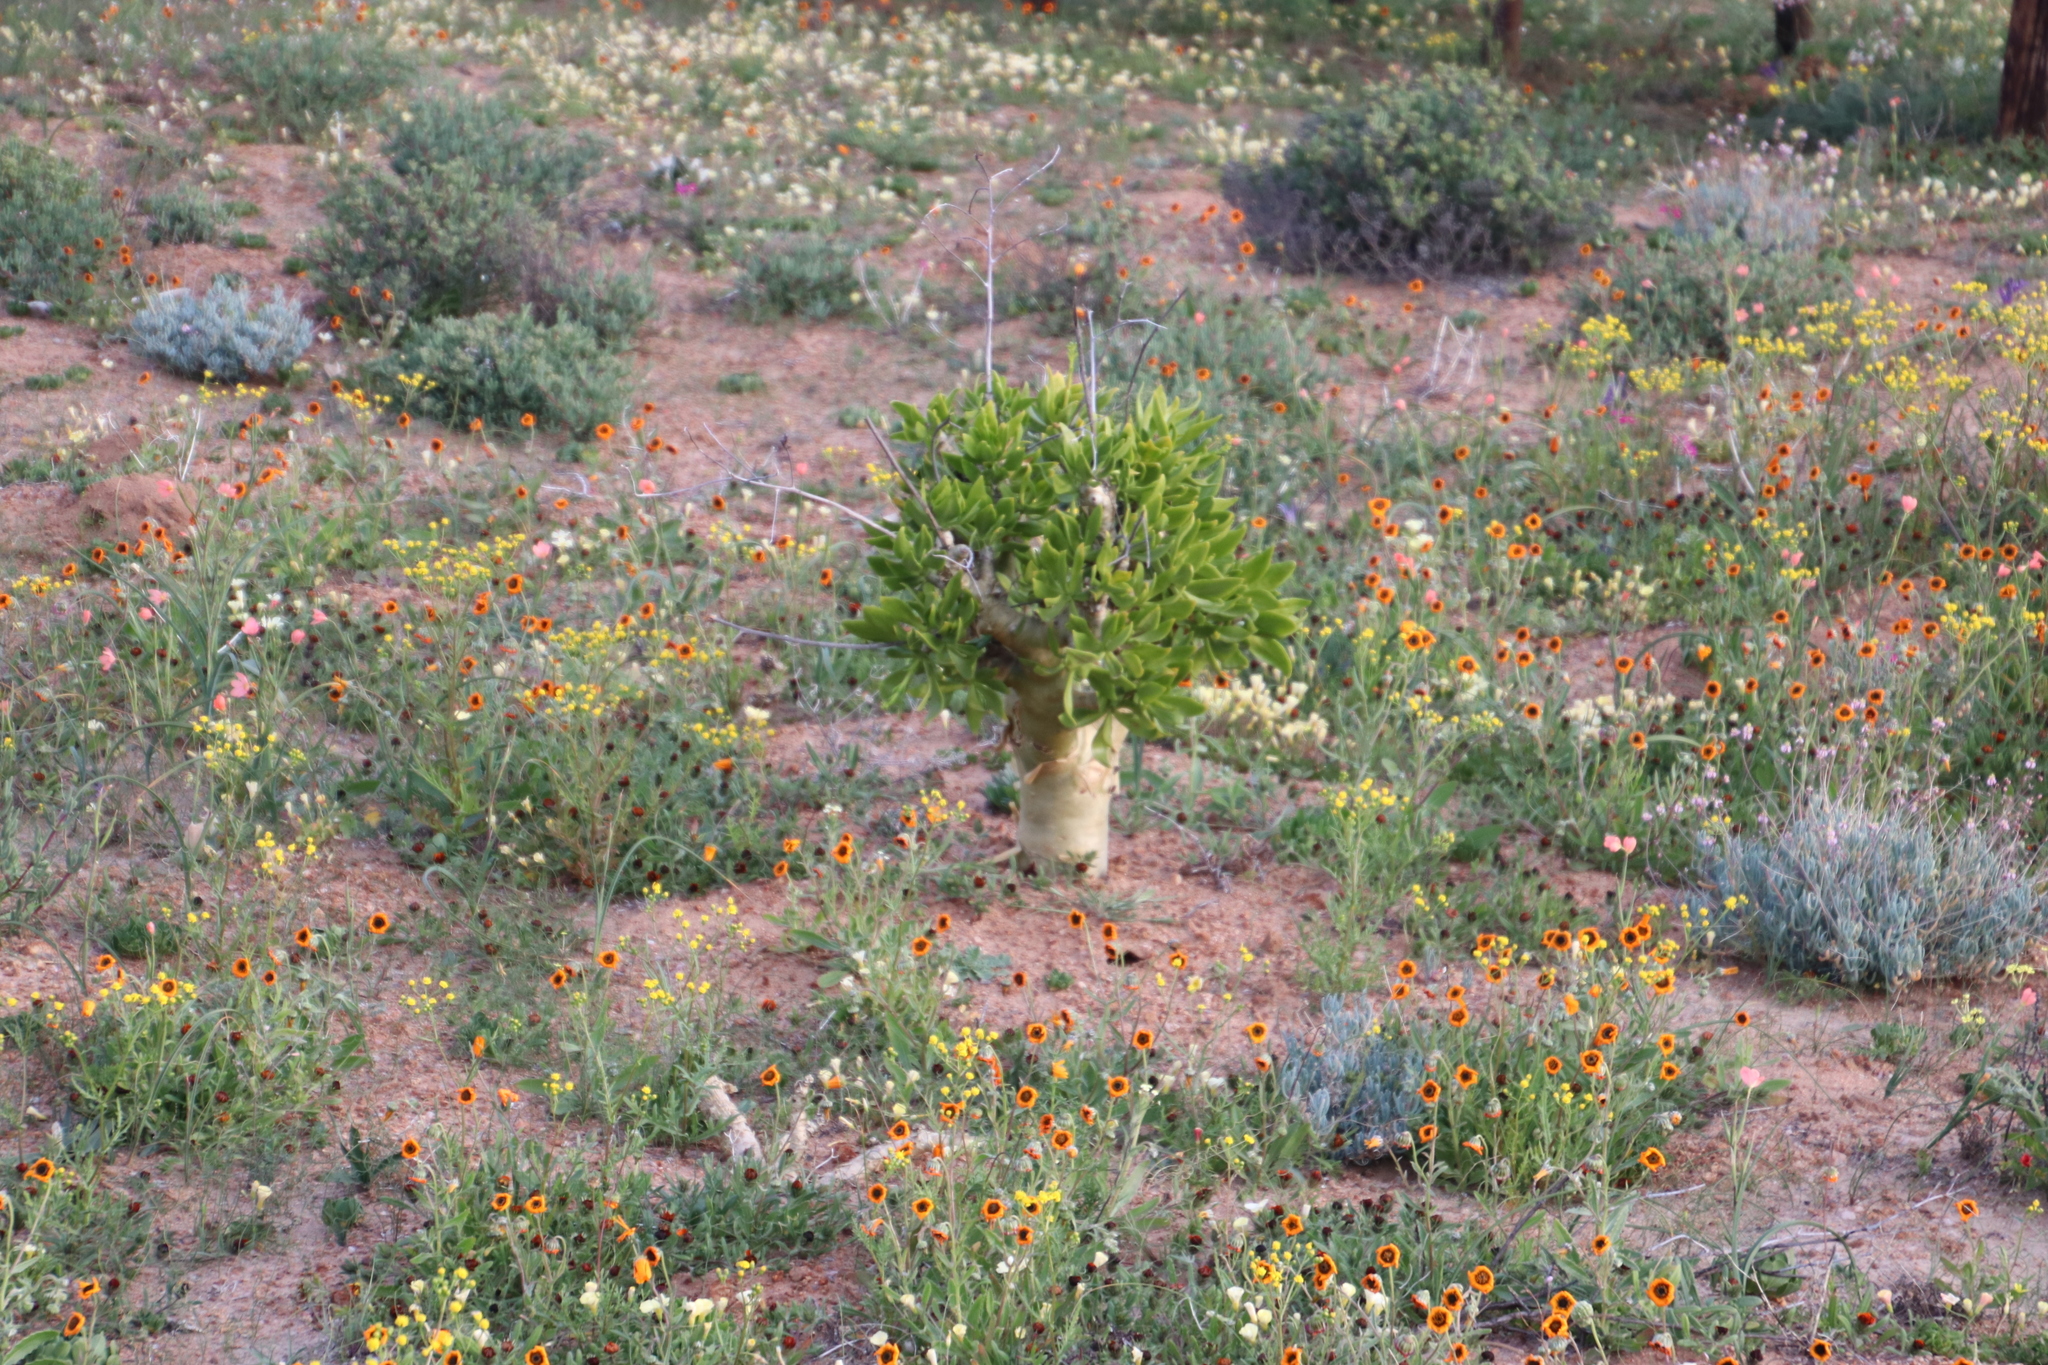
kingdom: Plantae
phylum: Tracheophyta
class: Magnoliopsida
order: Saxifragales
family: Crassulaceae
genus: Tylecodon
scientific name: Tylecodon paniculatus
